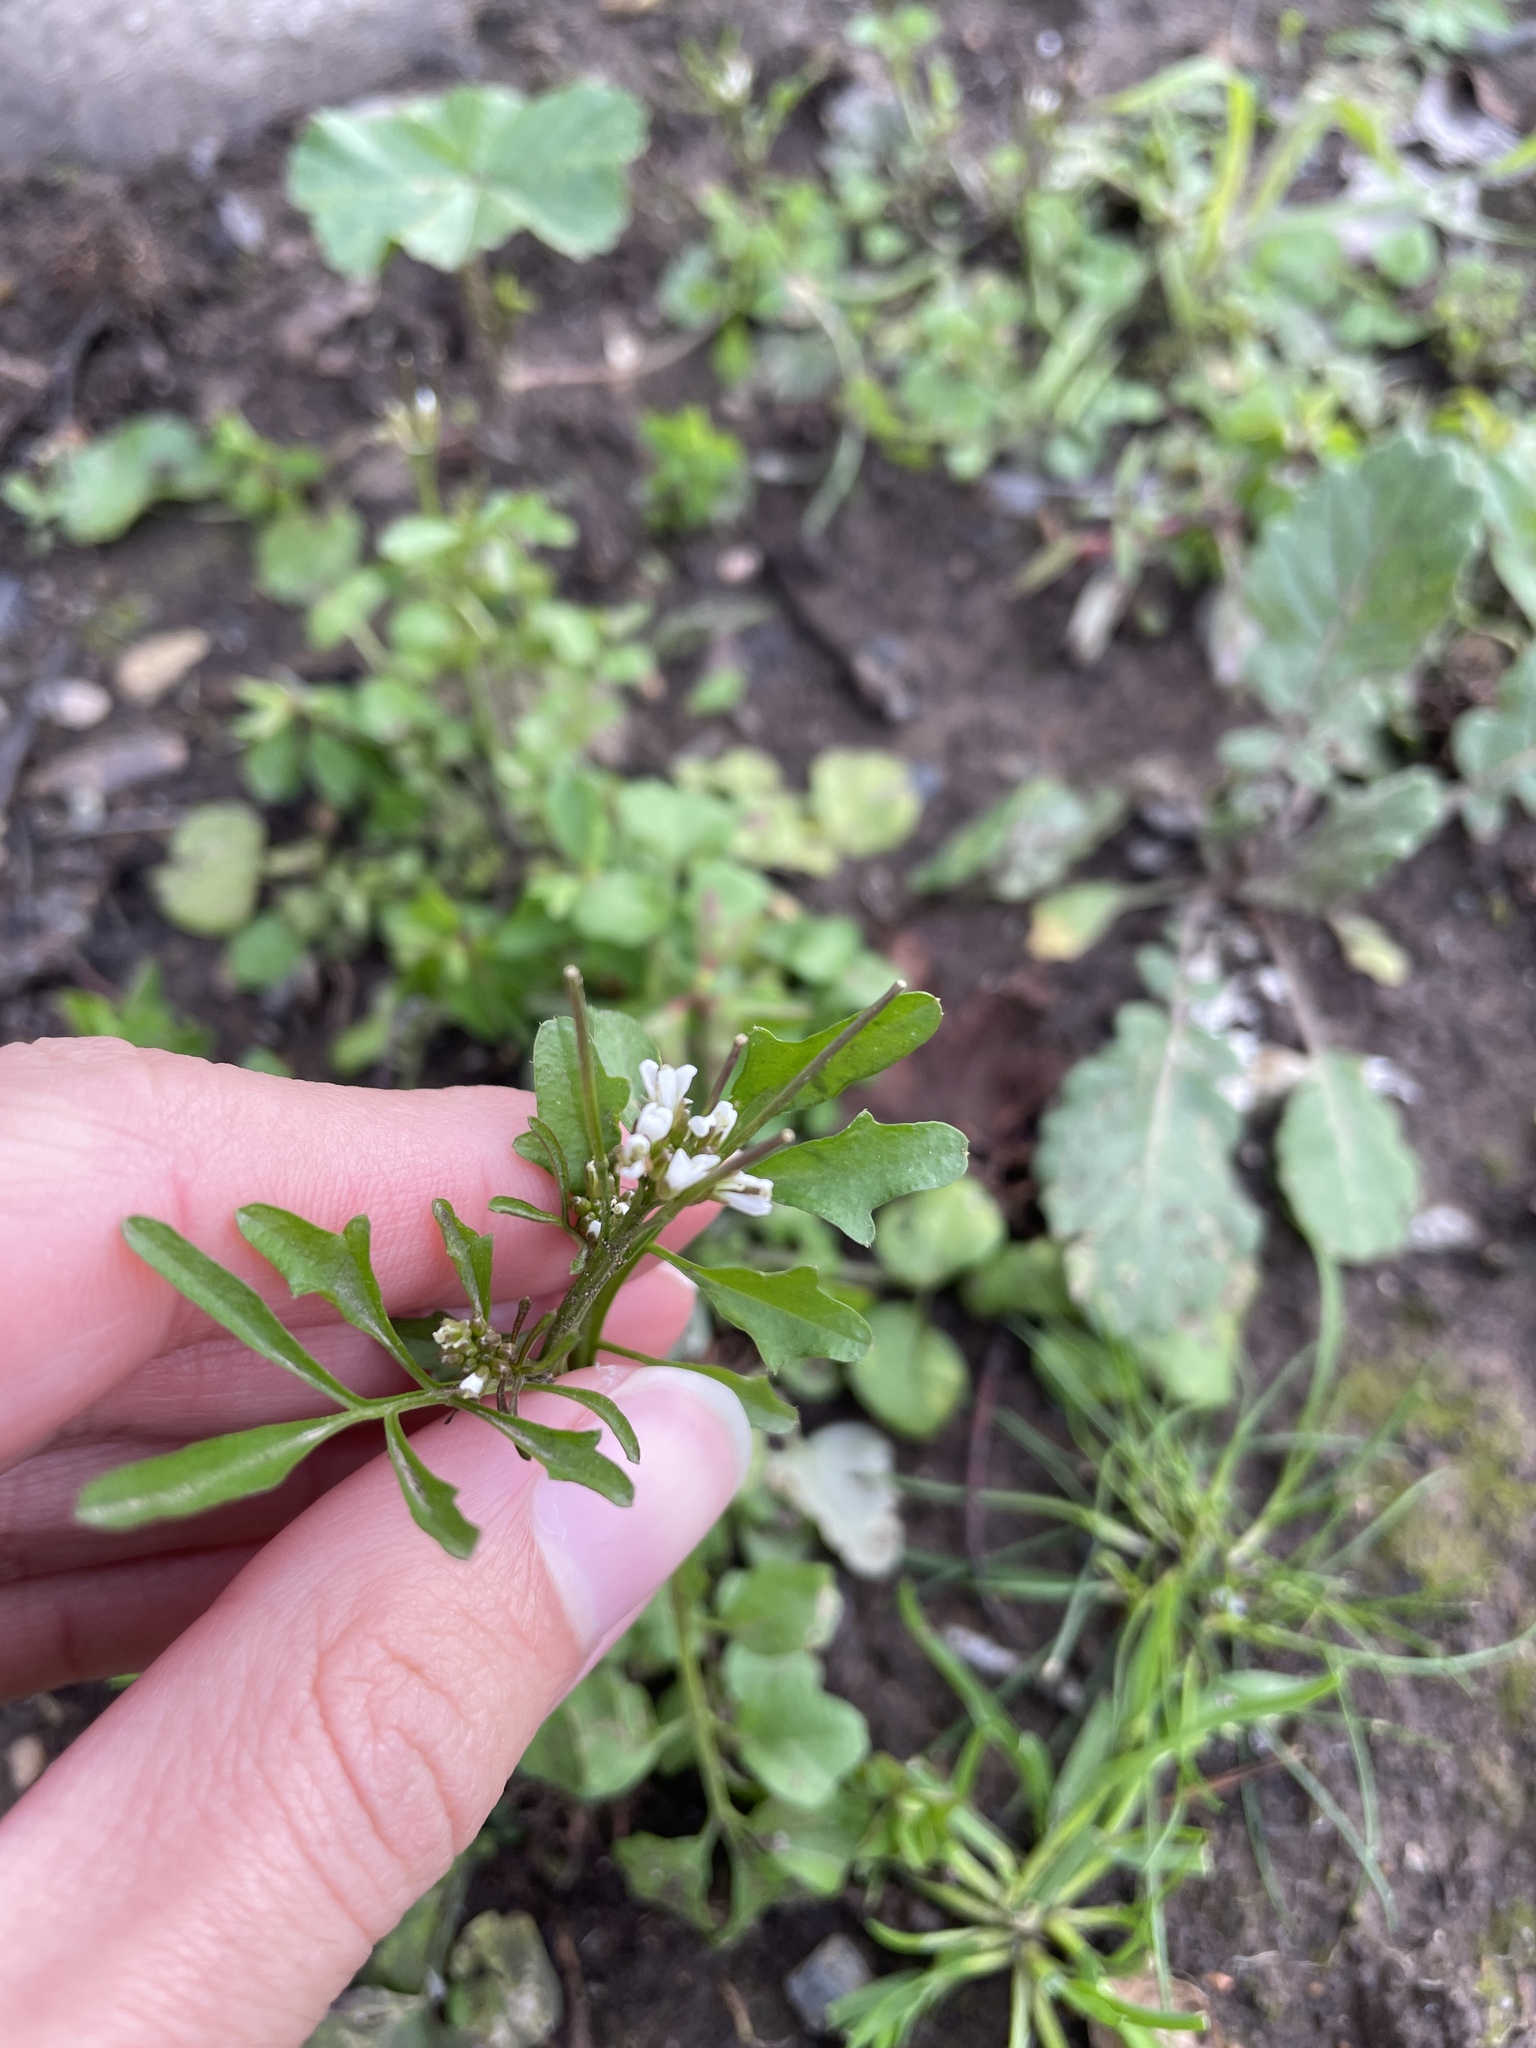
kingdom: Plantae
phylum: Tracheophyta
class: Magnoliopsida
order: Brassicales
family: Brassicaceae
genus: Cardamine
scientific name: Cardamine hirsuta
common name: Hairy bittercress
